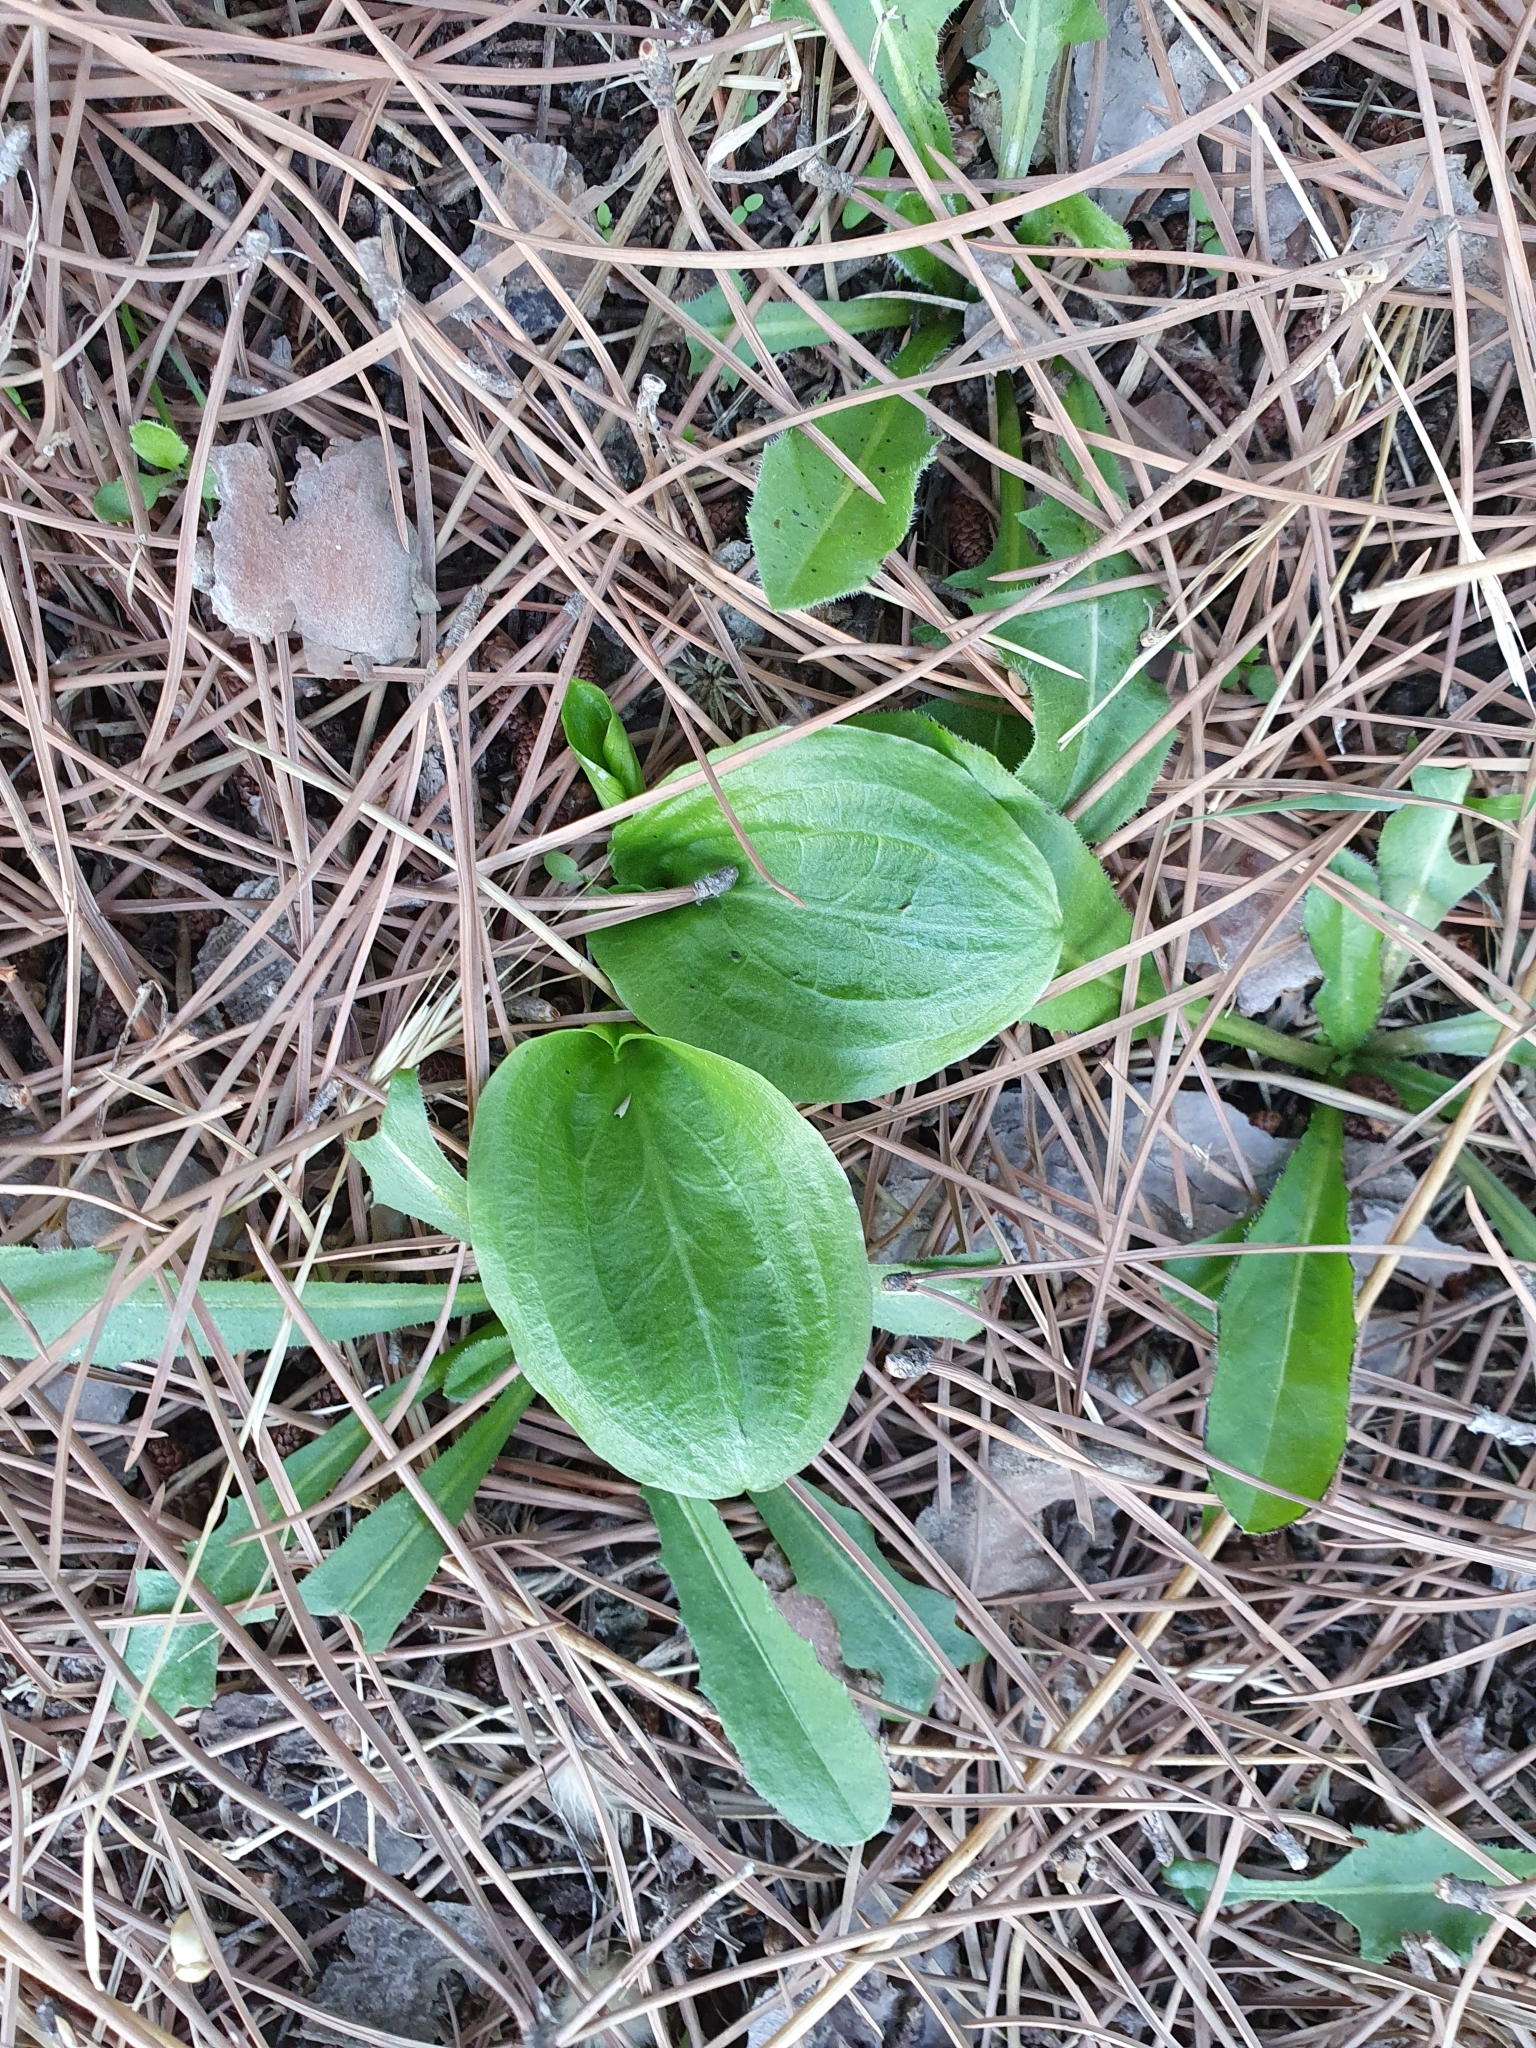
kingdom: Plantae
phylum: Tracheophyta
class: Liliopsida
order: Alismatales
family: Araceae
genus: Ambrosina
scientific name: Ambrosina bassii
